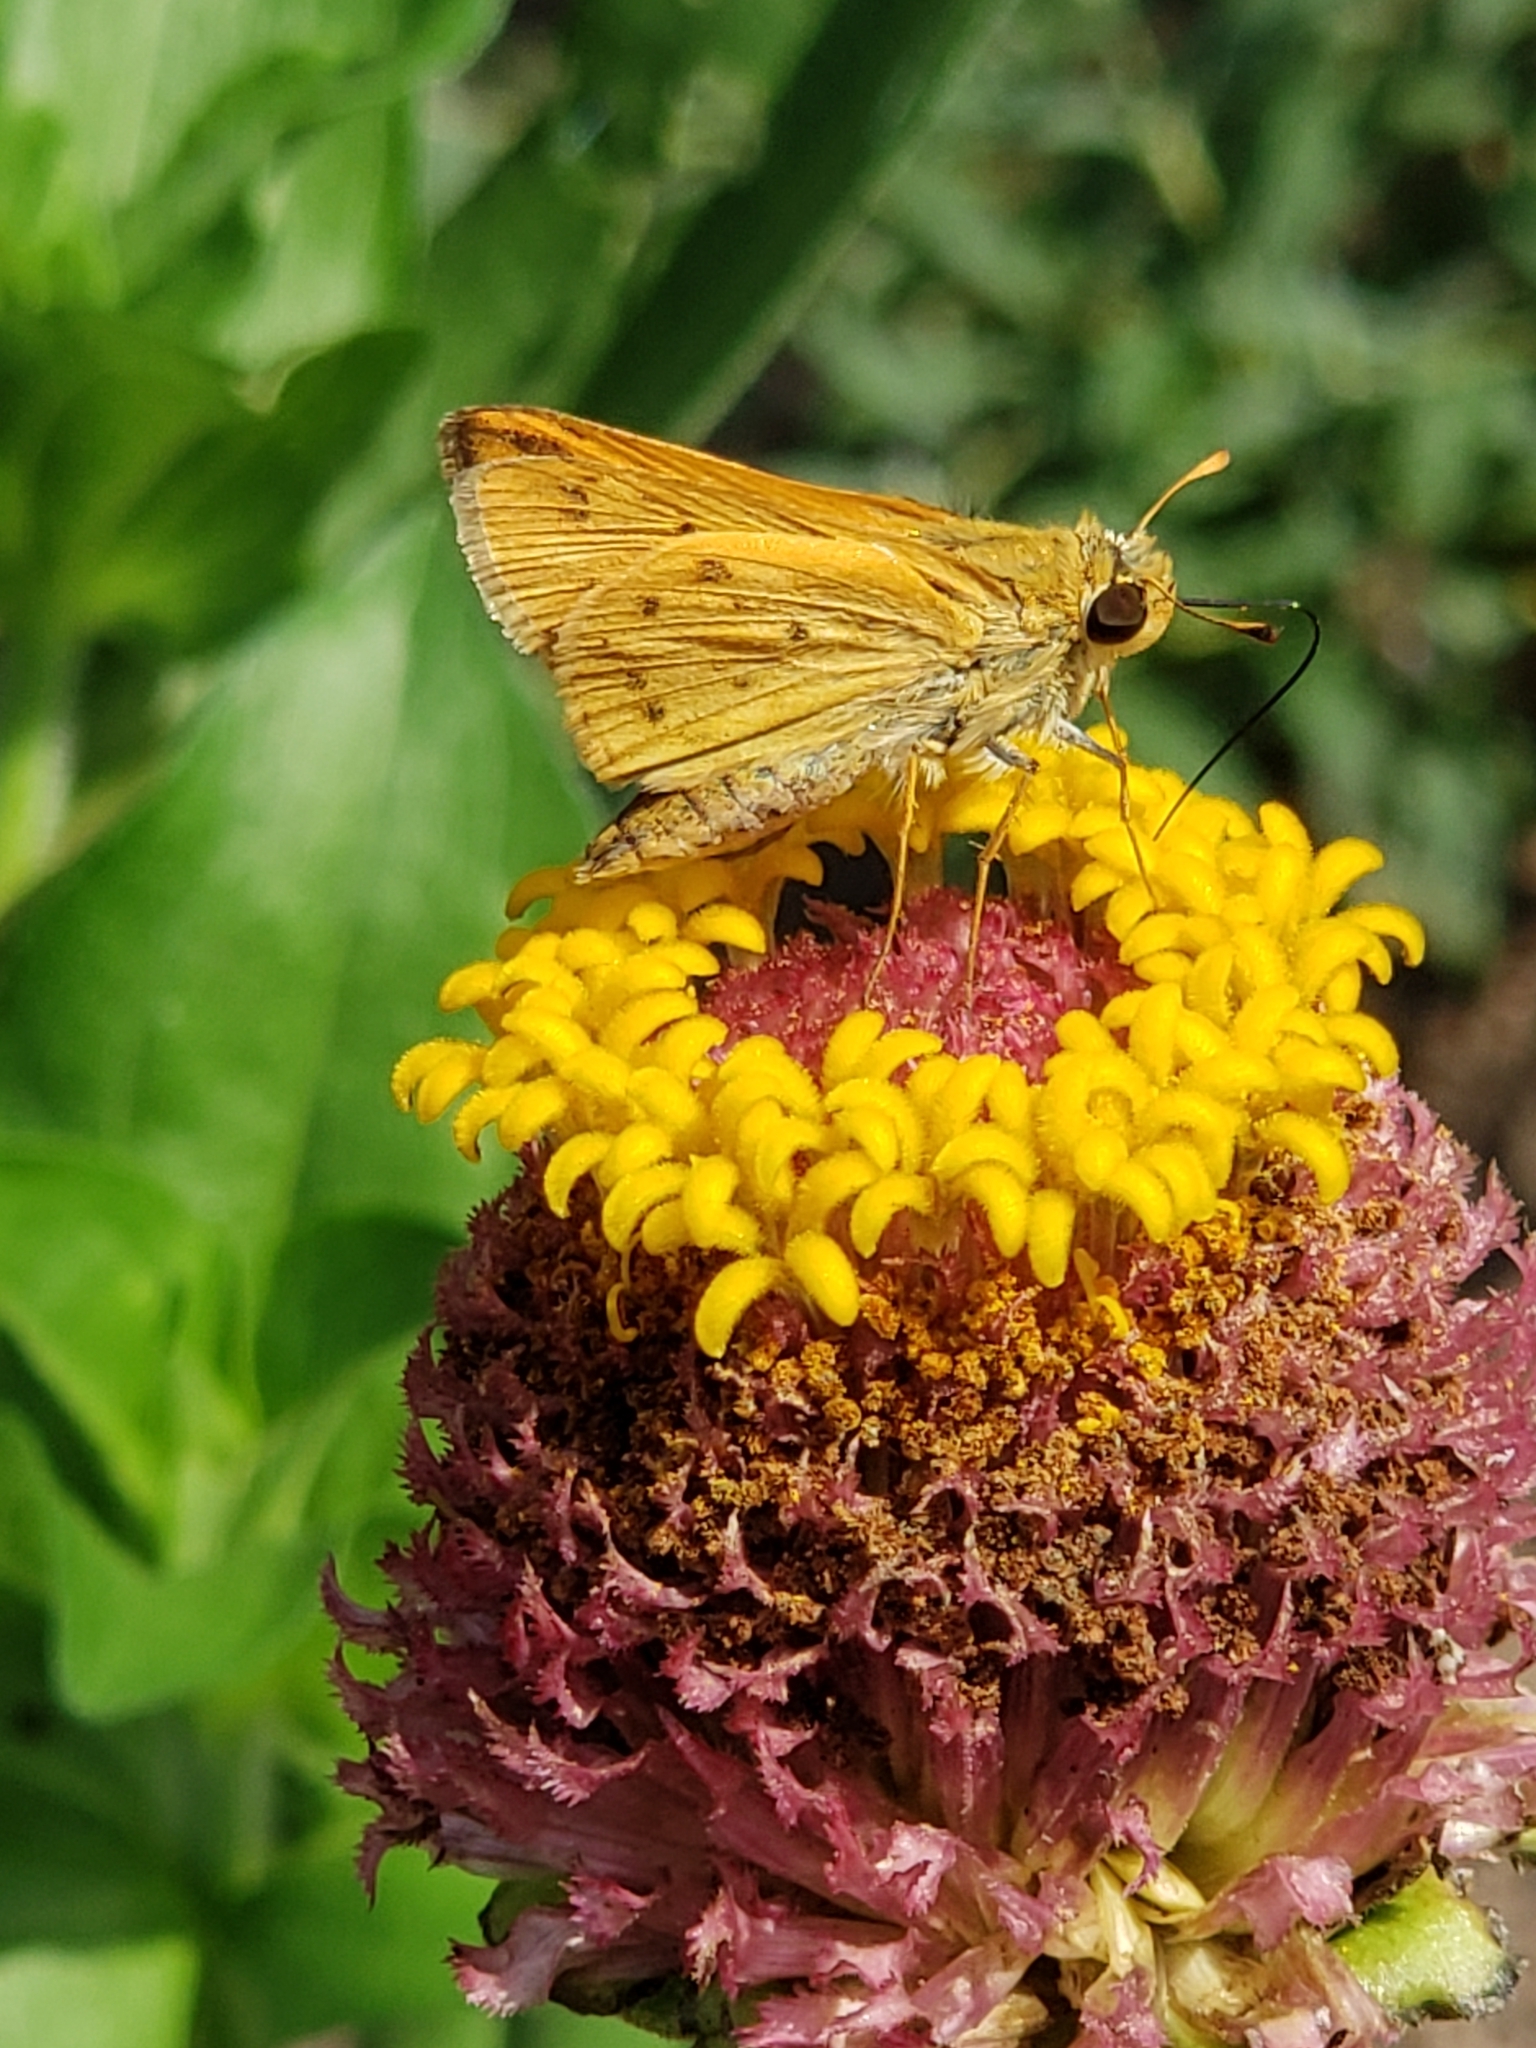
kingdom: Animalia
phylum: Arthropoda
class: Insecta
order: Lepidoptera
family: Hesperiidae
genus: Hylephila
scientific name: Hylephila phyleus
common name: Fiery skipper
